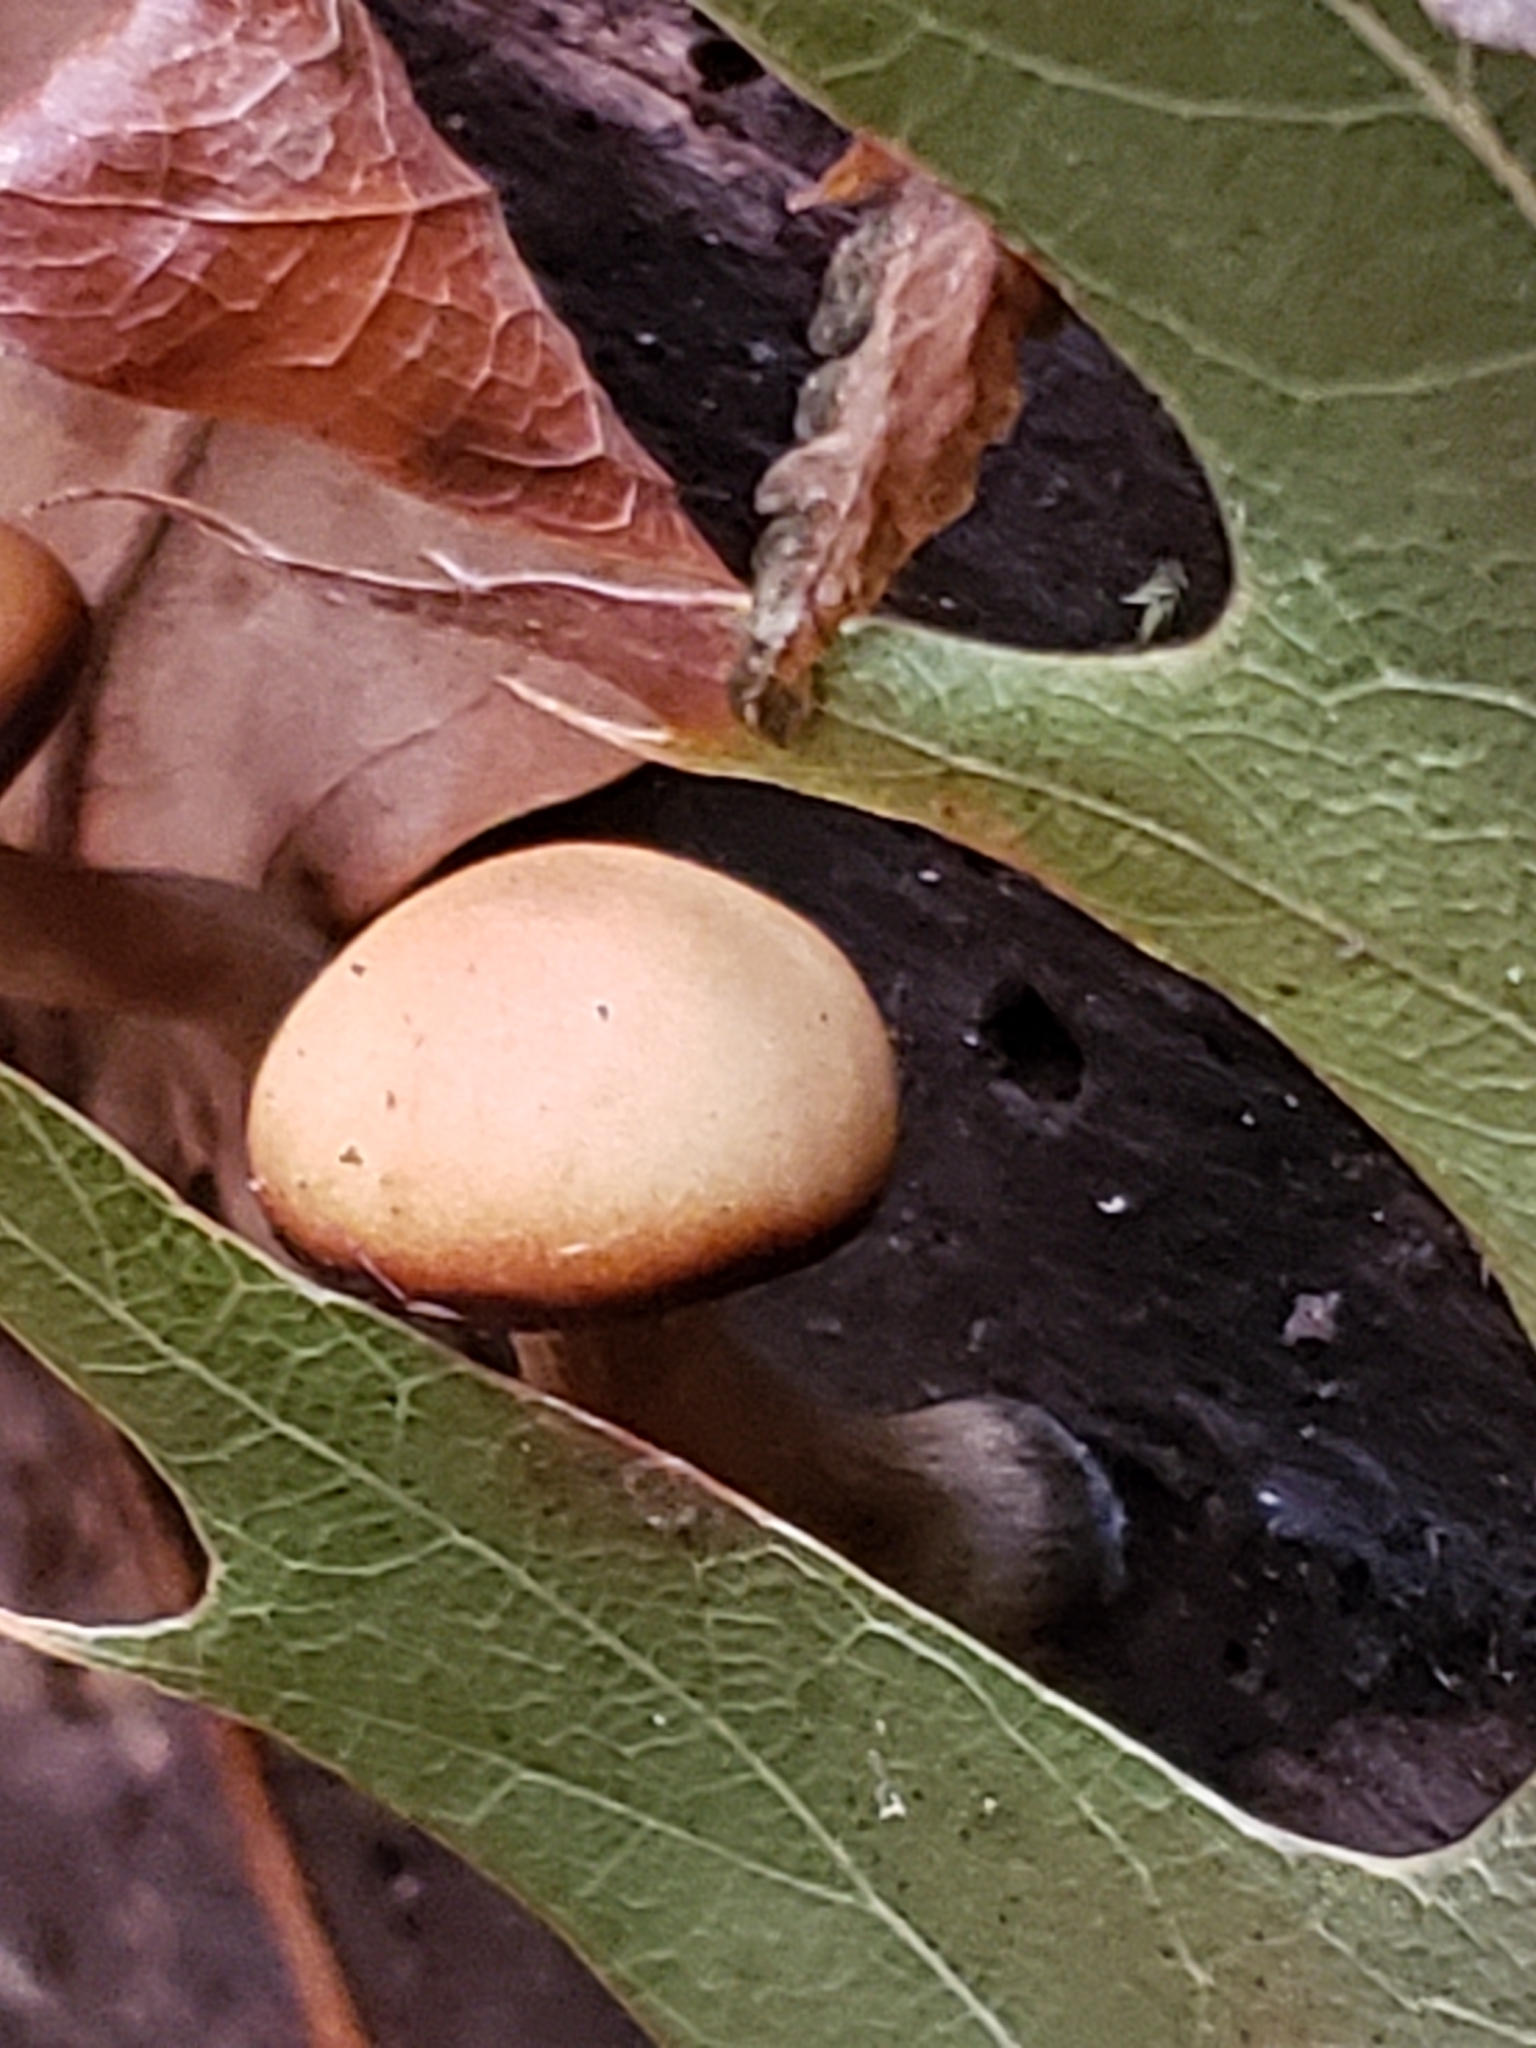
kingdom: Fungi
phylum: Basidiomycota
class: Agaricomycetes
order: Agaricales
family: Hymenogastraceae
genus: Galerina
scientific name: Galerina marginata
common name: Funeral bell
